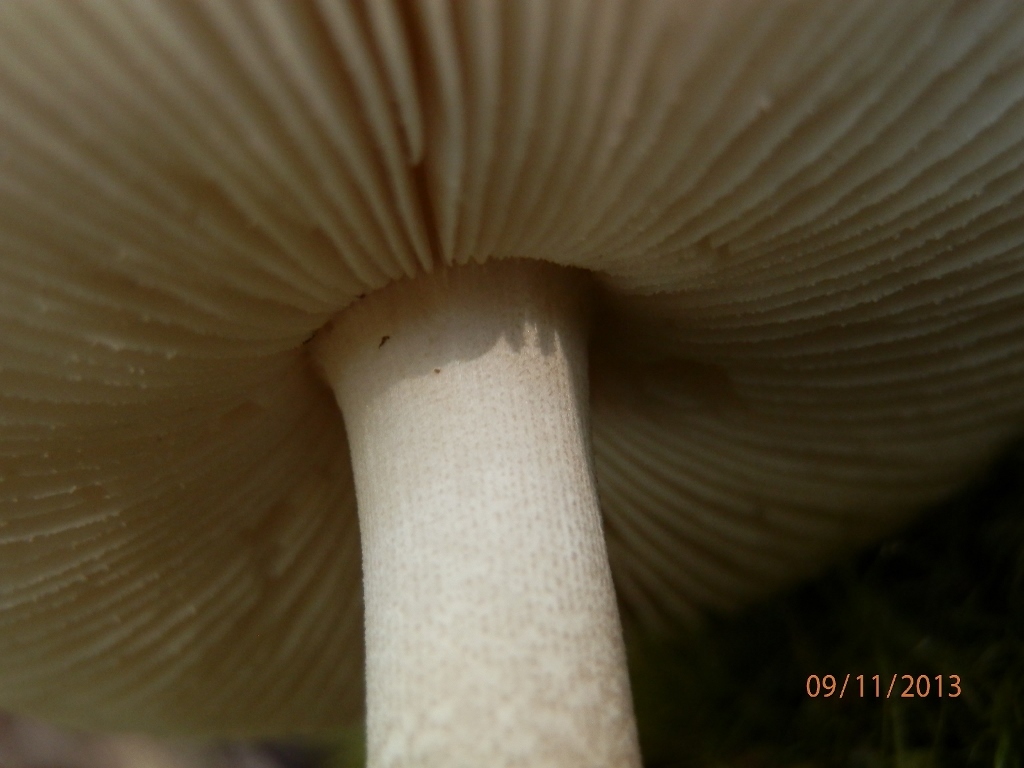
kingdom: Fungi
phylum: Basidiomycota
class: Agaricomycetes
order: Agaricales
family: Amanitaceae
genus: Amanita
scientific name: Amanita porphyria
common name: Grey veiled amanita
